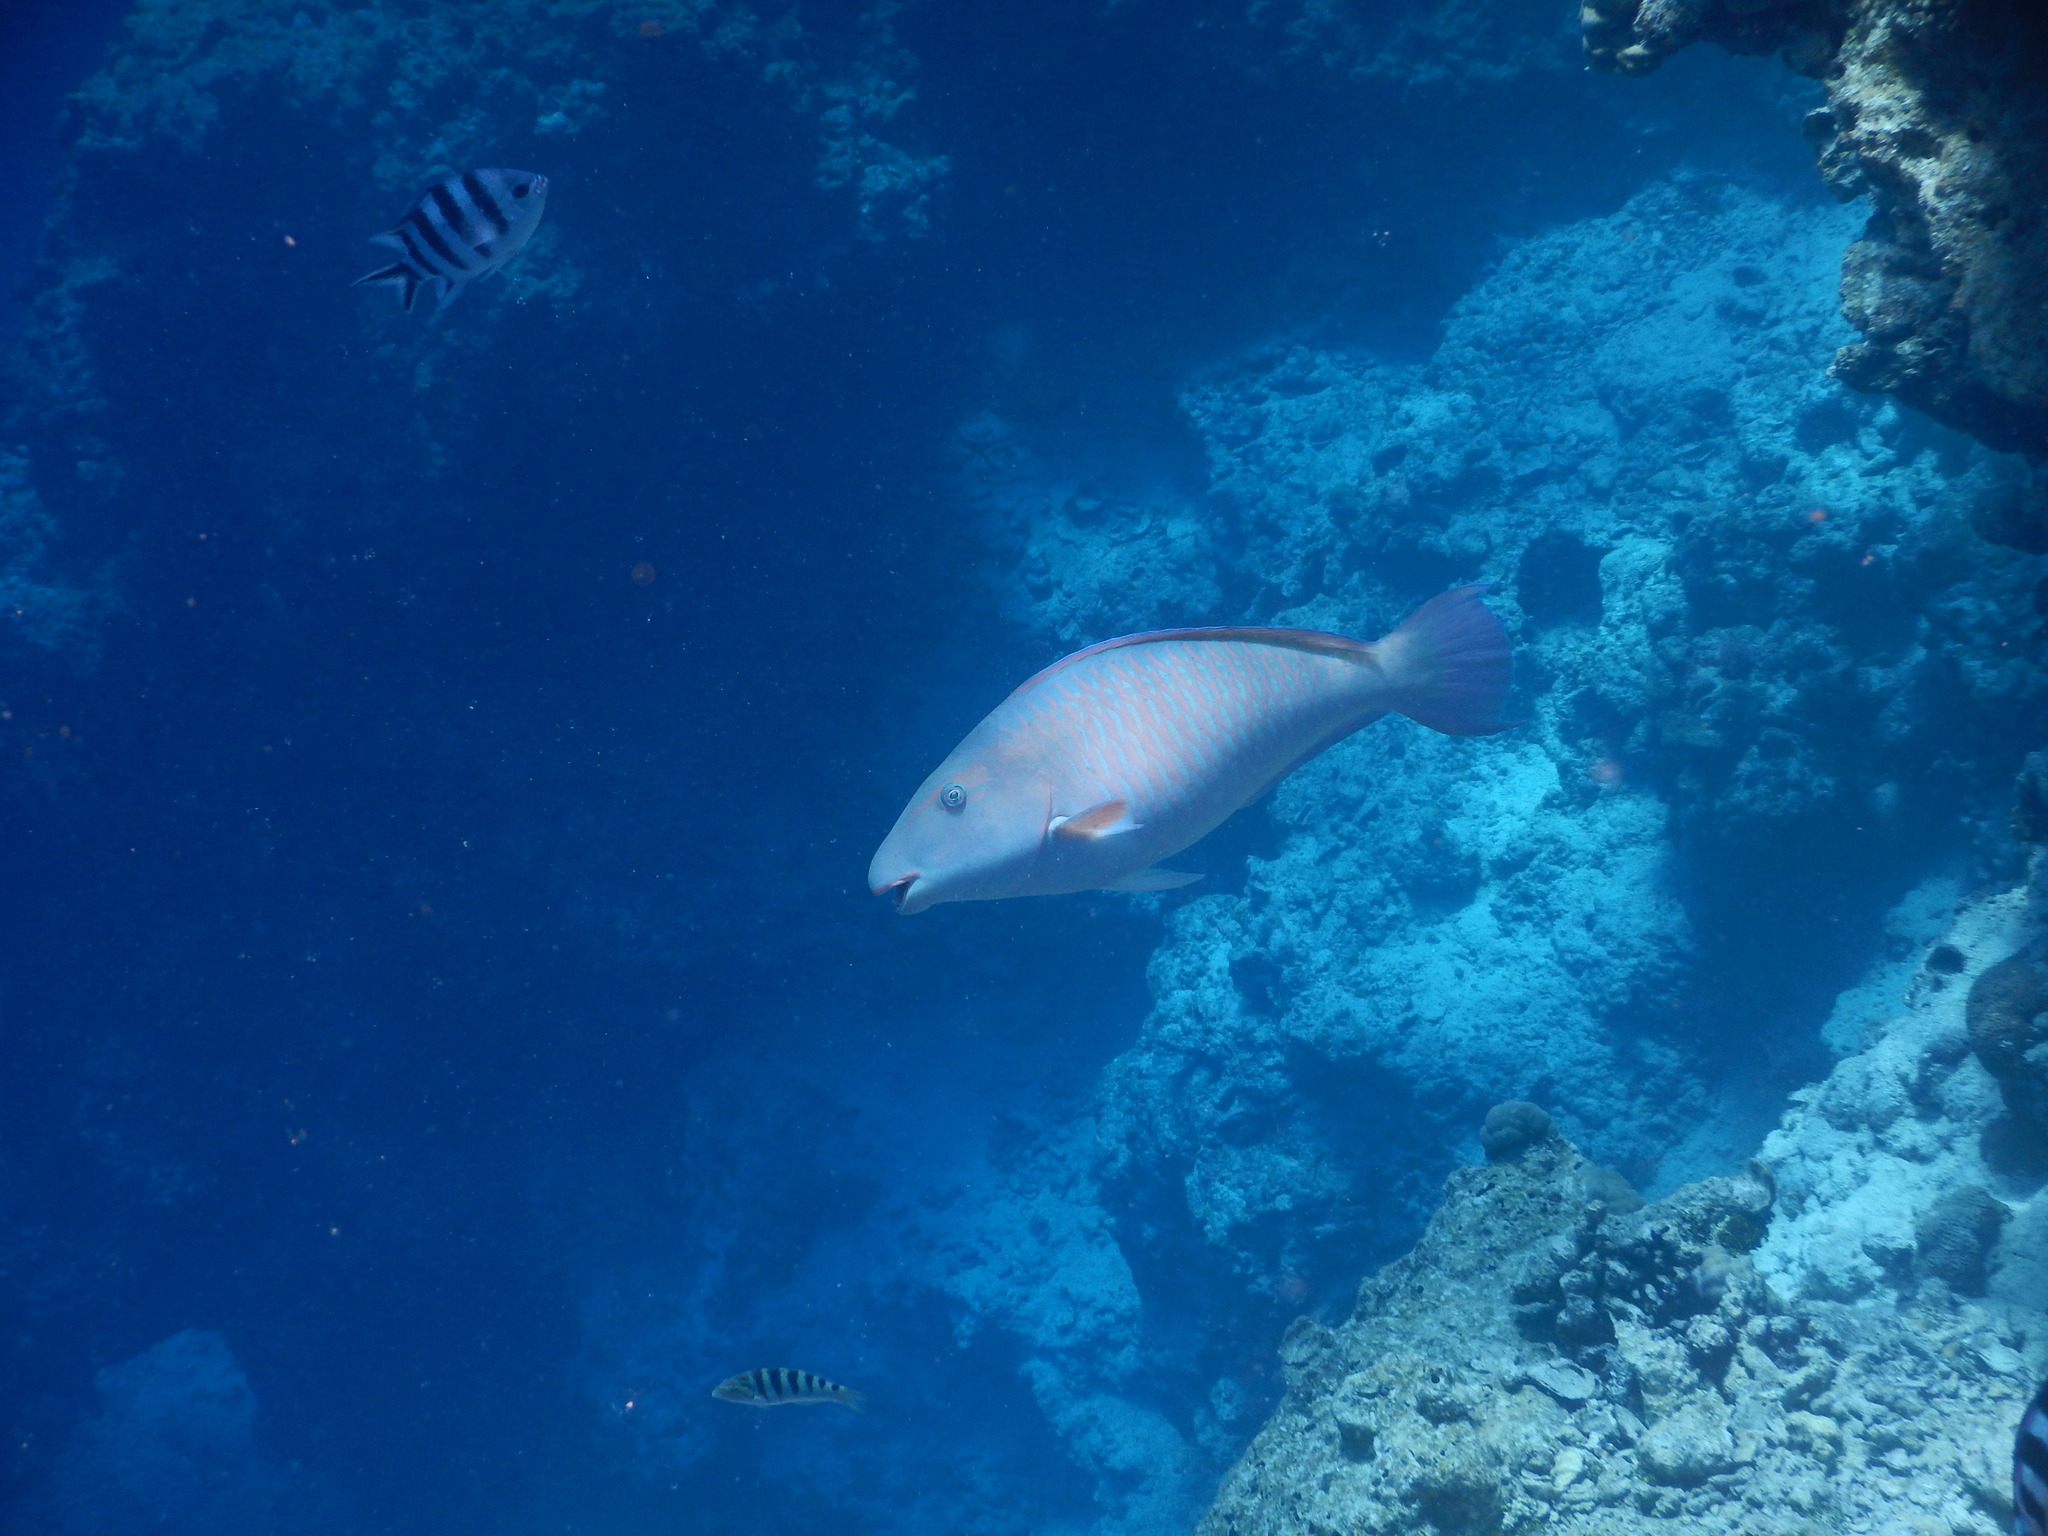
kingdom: Animalia
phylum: Chordata
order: Perciformes
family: Scaridae
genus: Hipposcarus
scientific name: Hipposcarus longiceps
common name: Pacific longnose parrotfish
